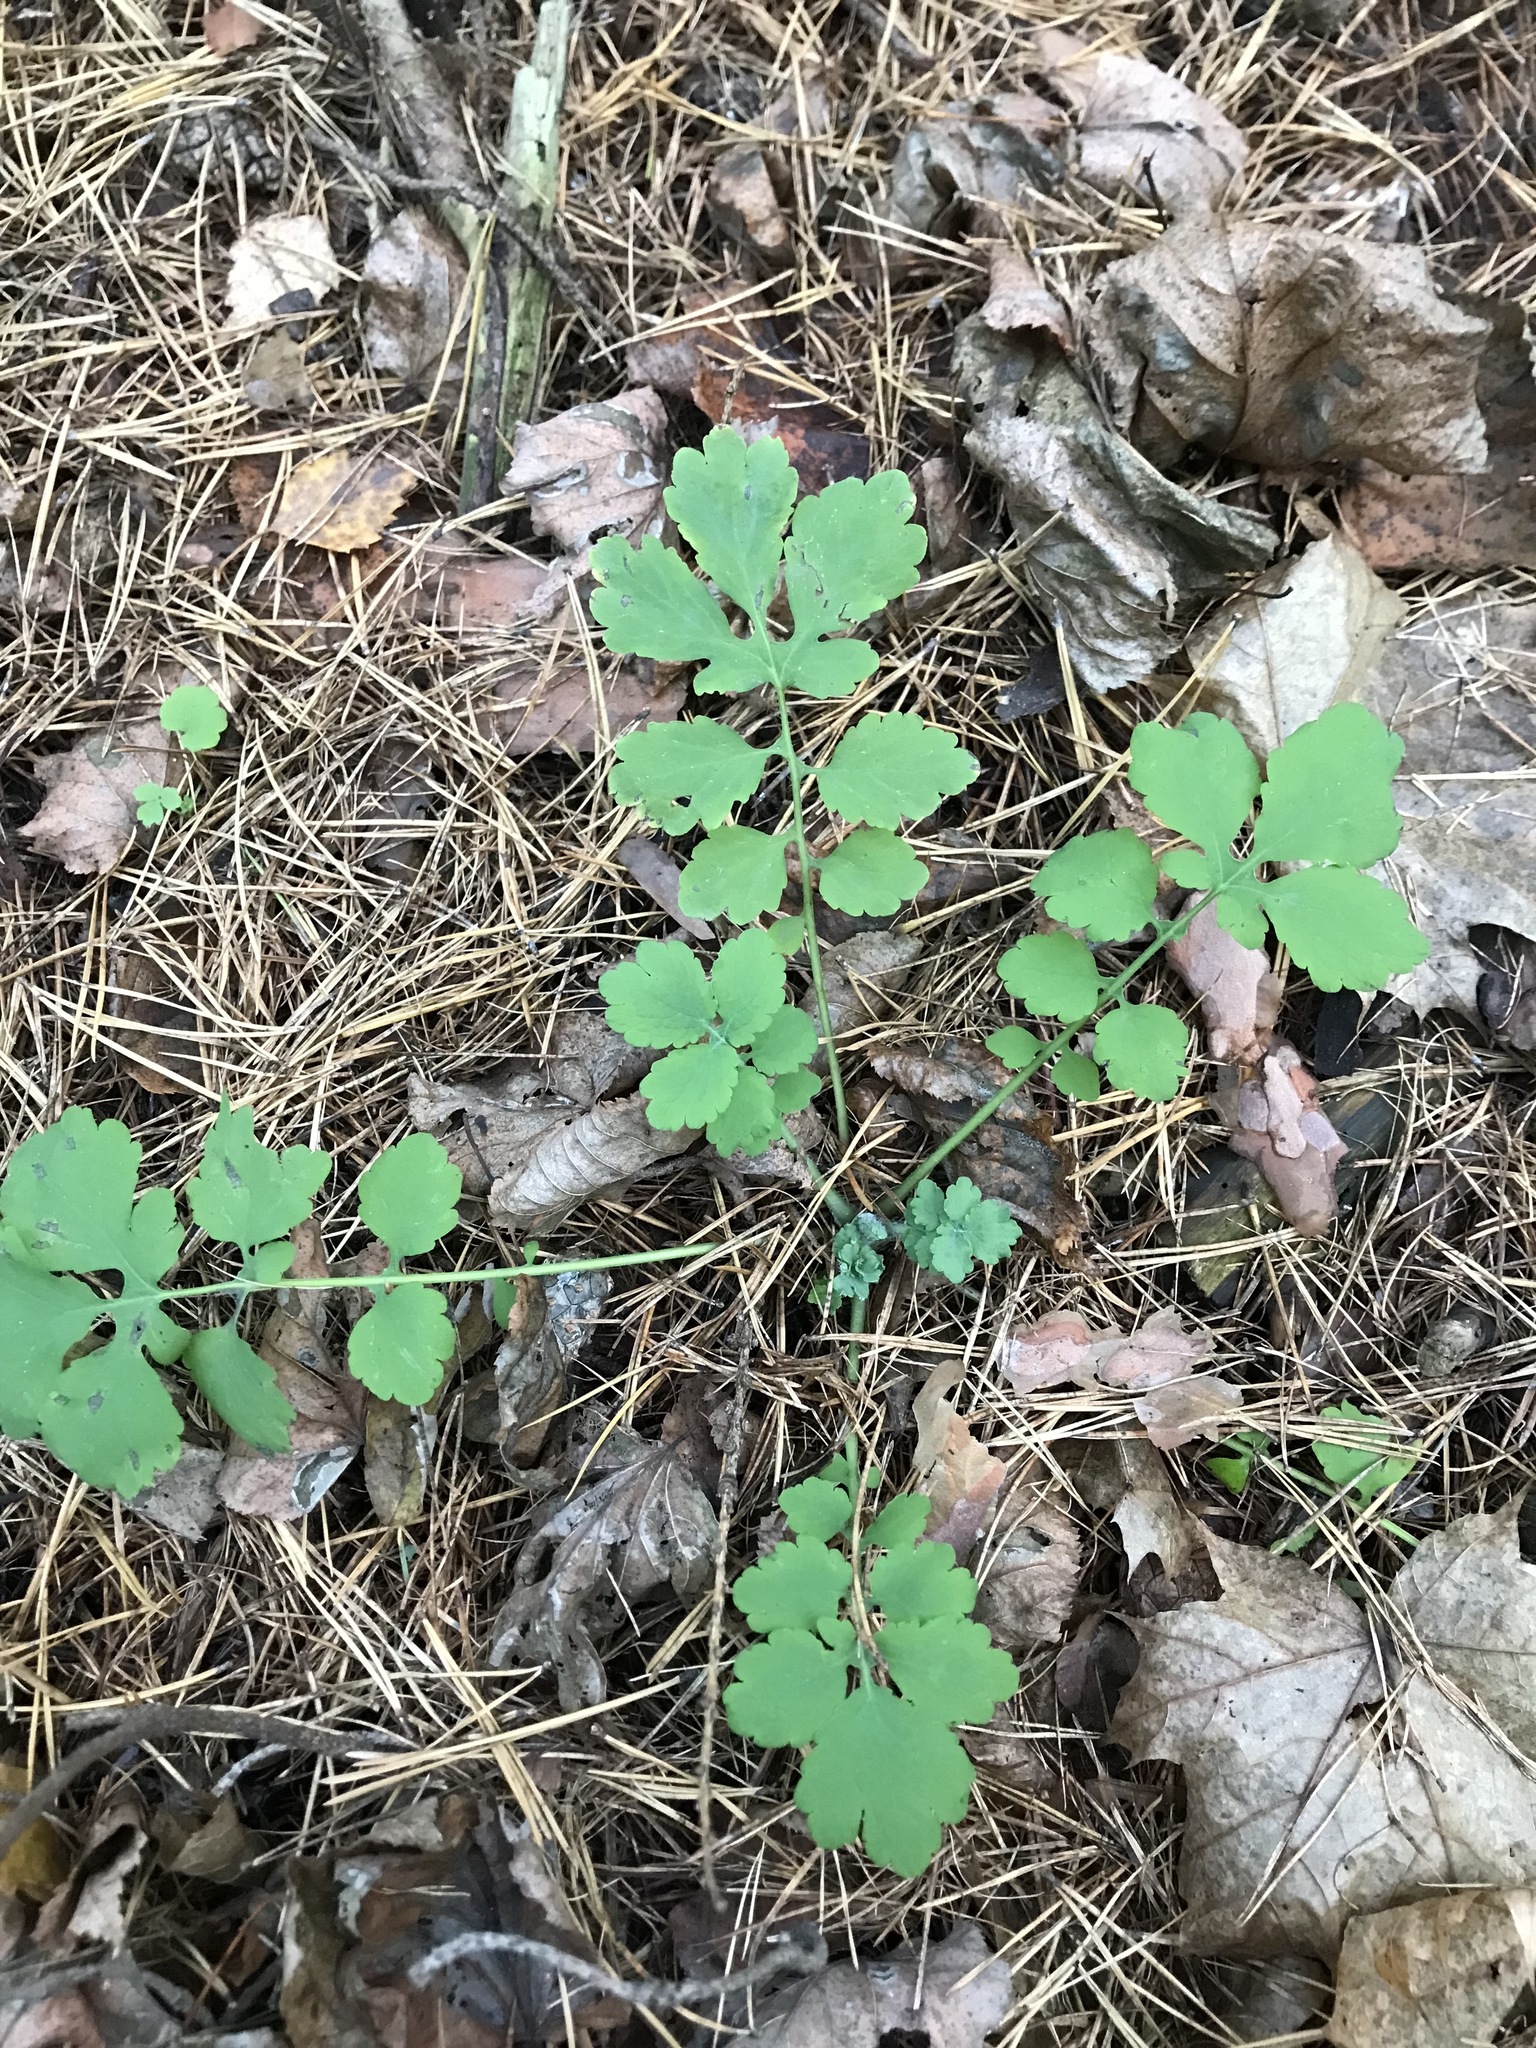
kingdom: Plantae
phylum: Tracheophyta
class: Magnoliopsida
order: Ranunculales
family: Papaveraceae
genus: Chelidonium
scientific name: Chelidonium majus
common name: Greater celandine
